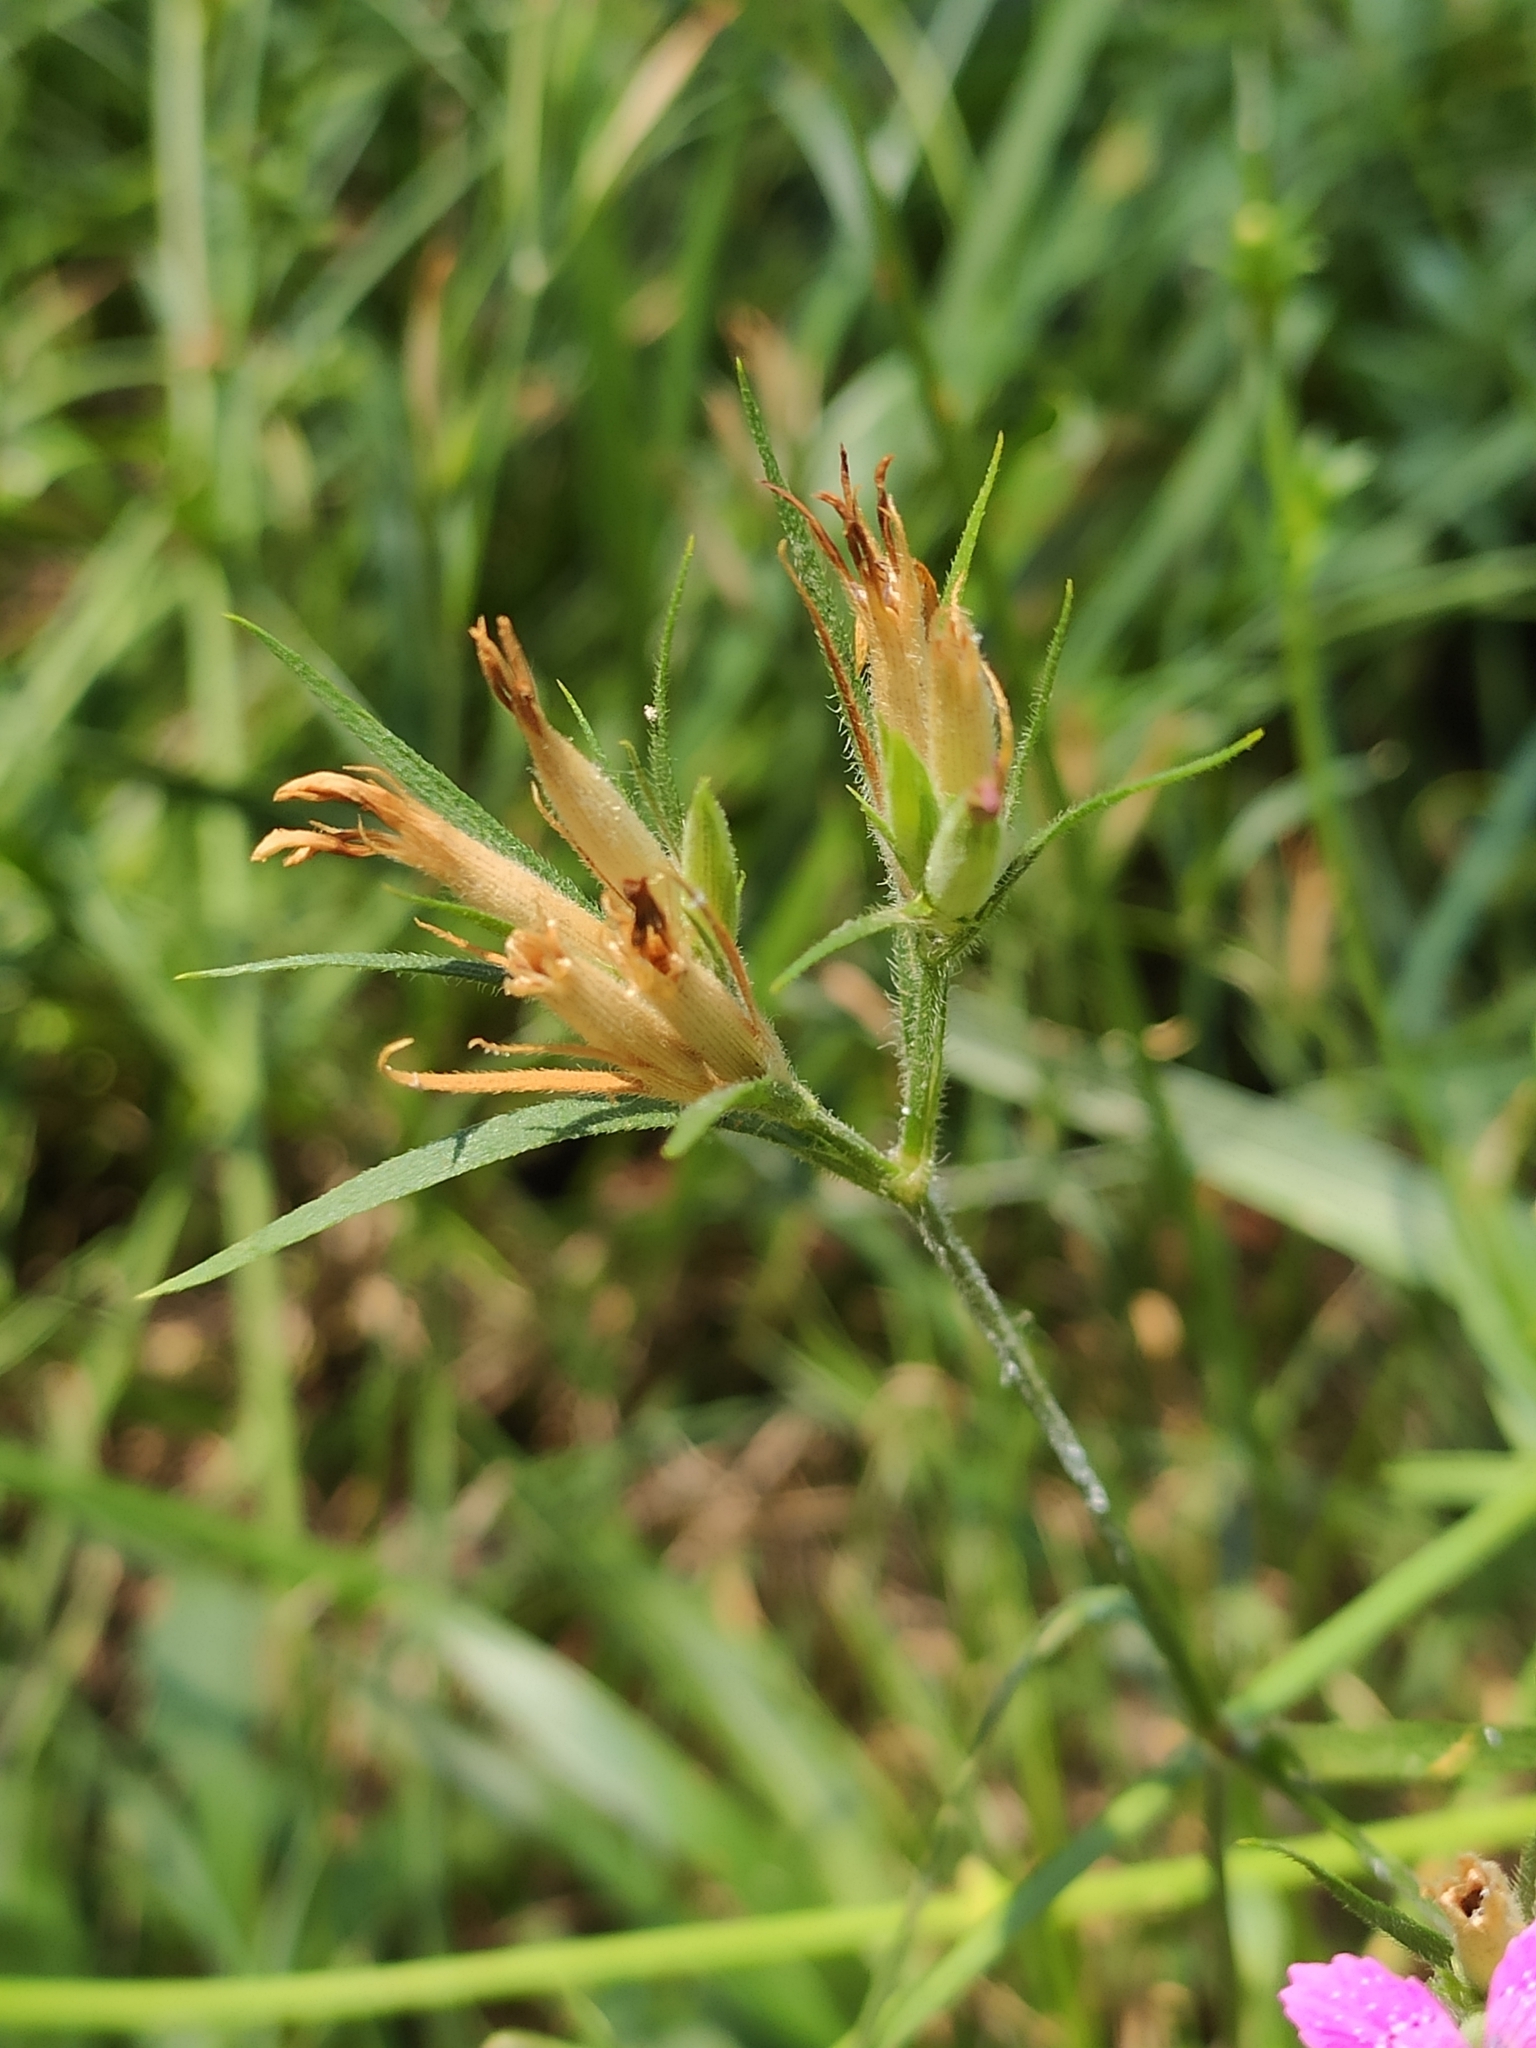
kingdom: Plantae
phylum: Tracheophyta
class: Magnoliopsida
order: Caryophyllales
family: Caryophyllaceae
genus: Dianthus
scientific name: Dianthus armeria
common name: Deptford pink
